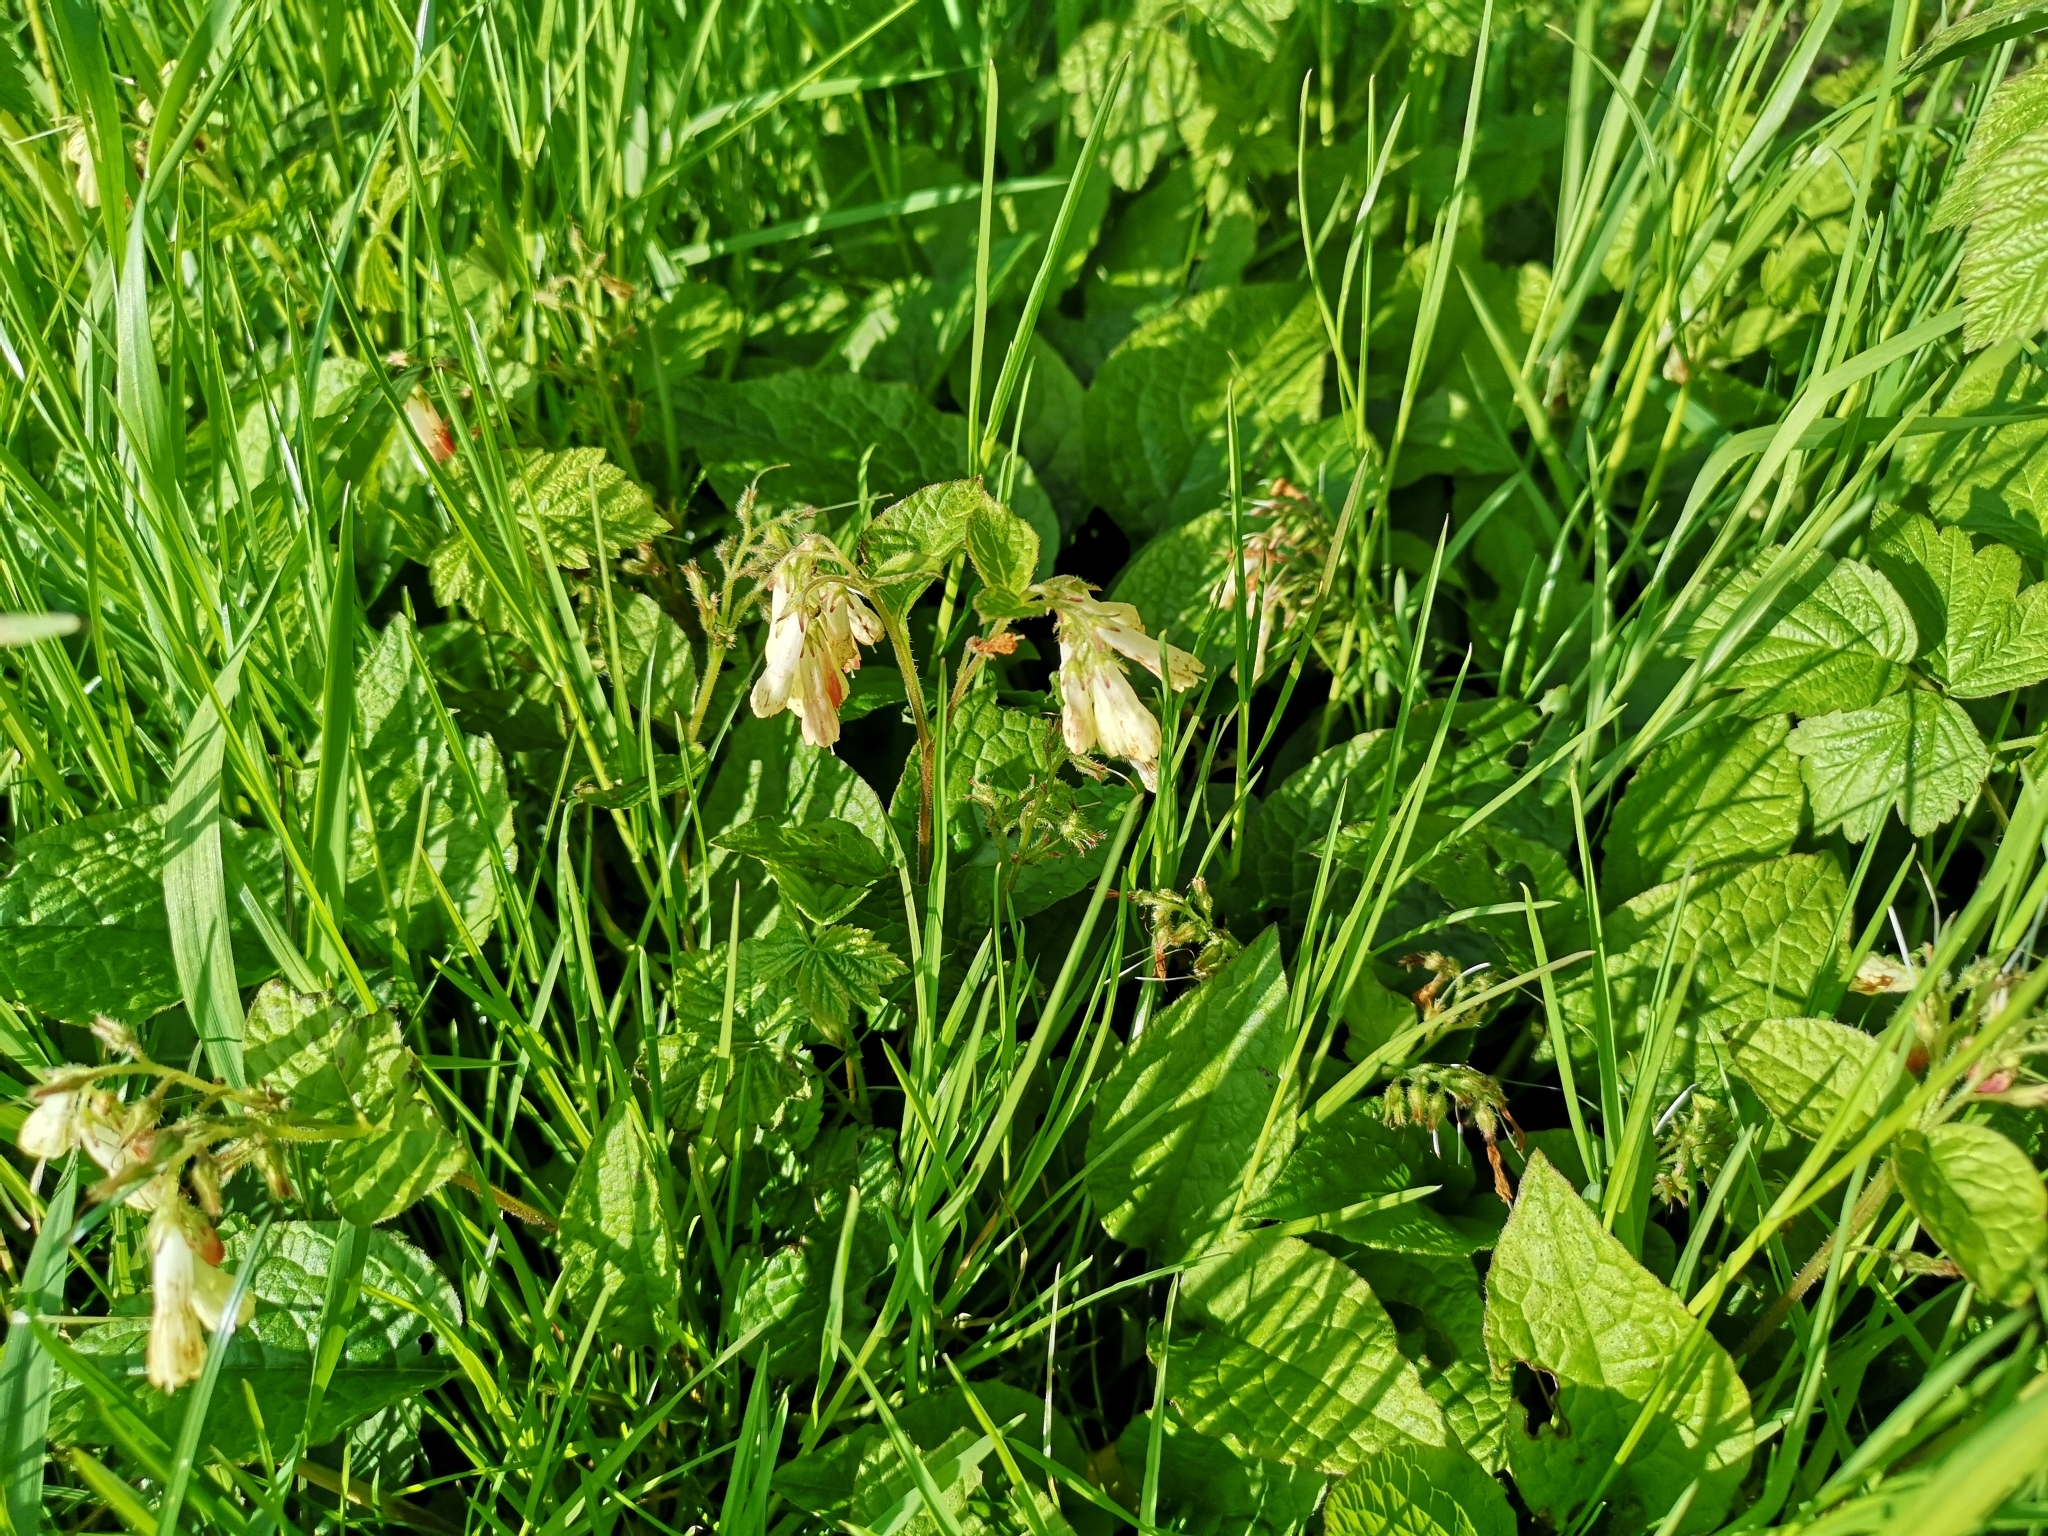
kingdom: Plantae
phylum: Tracheophyta
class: Magnoliopsida
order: Boraginales
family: Boraginaceae
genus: Symphytum
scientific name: Symphytum grandiflorum
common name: Creeping comfrey
